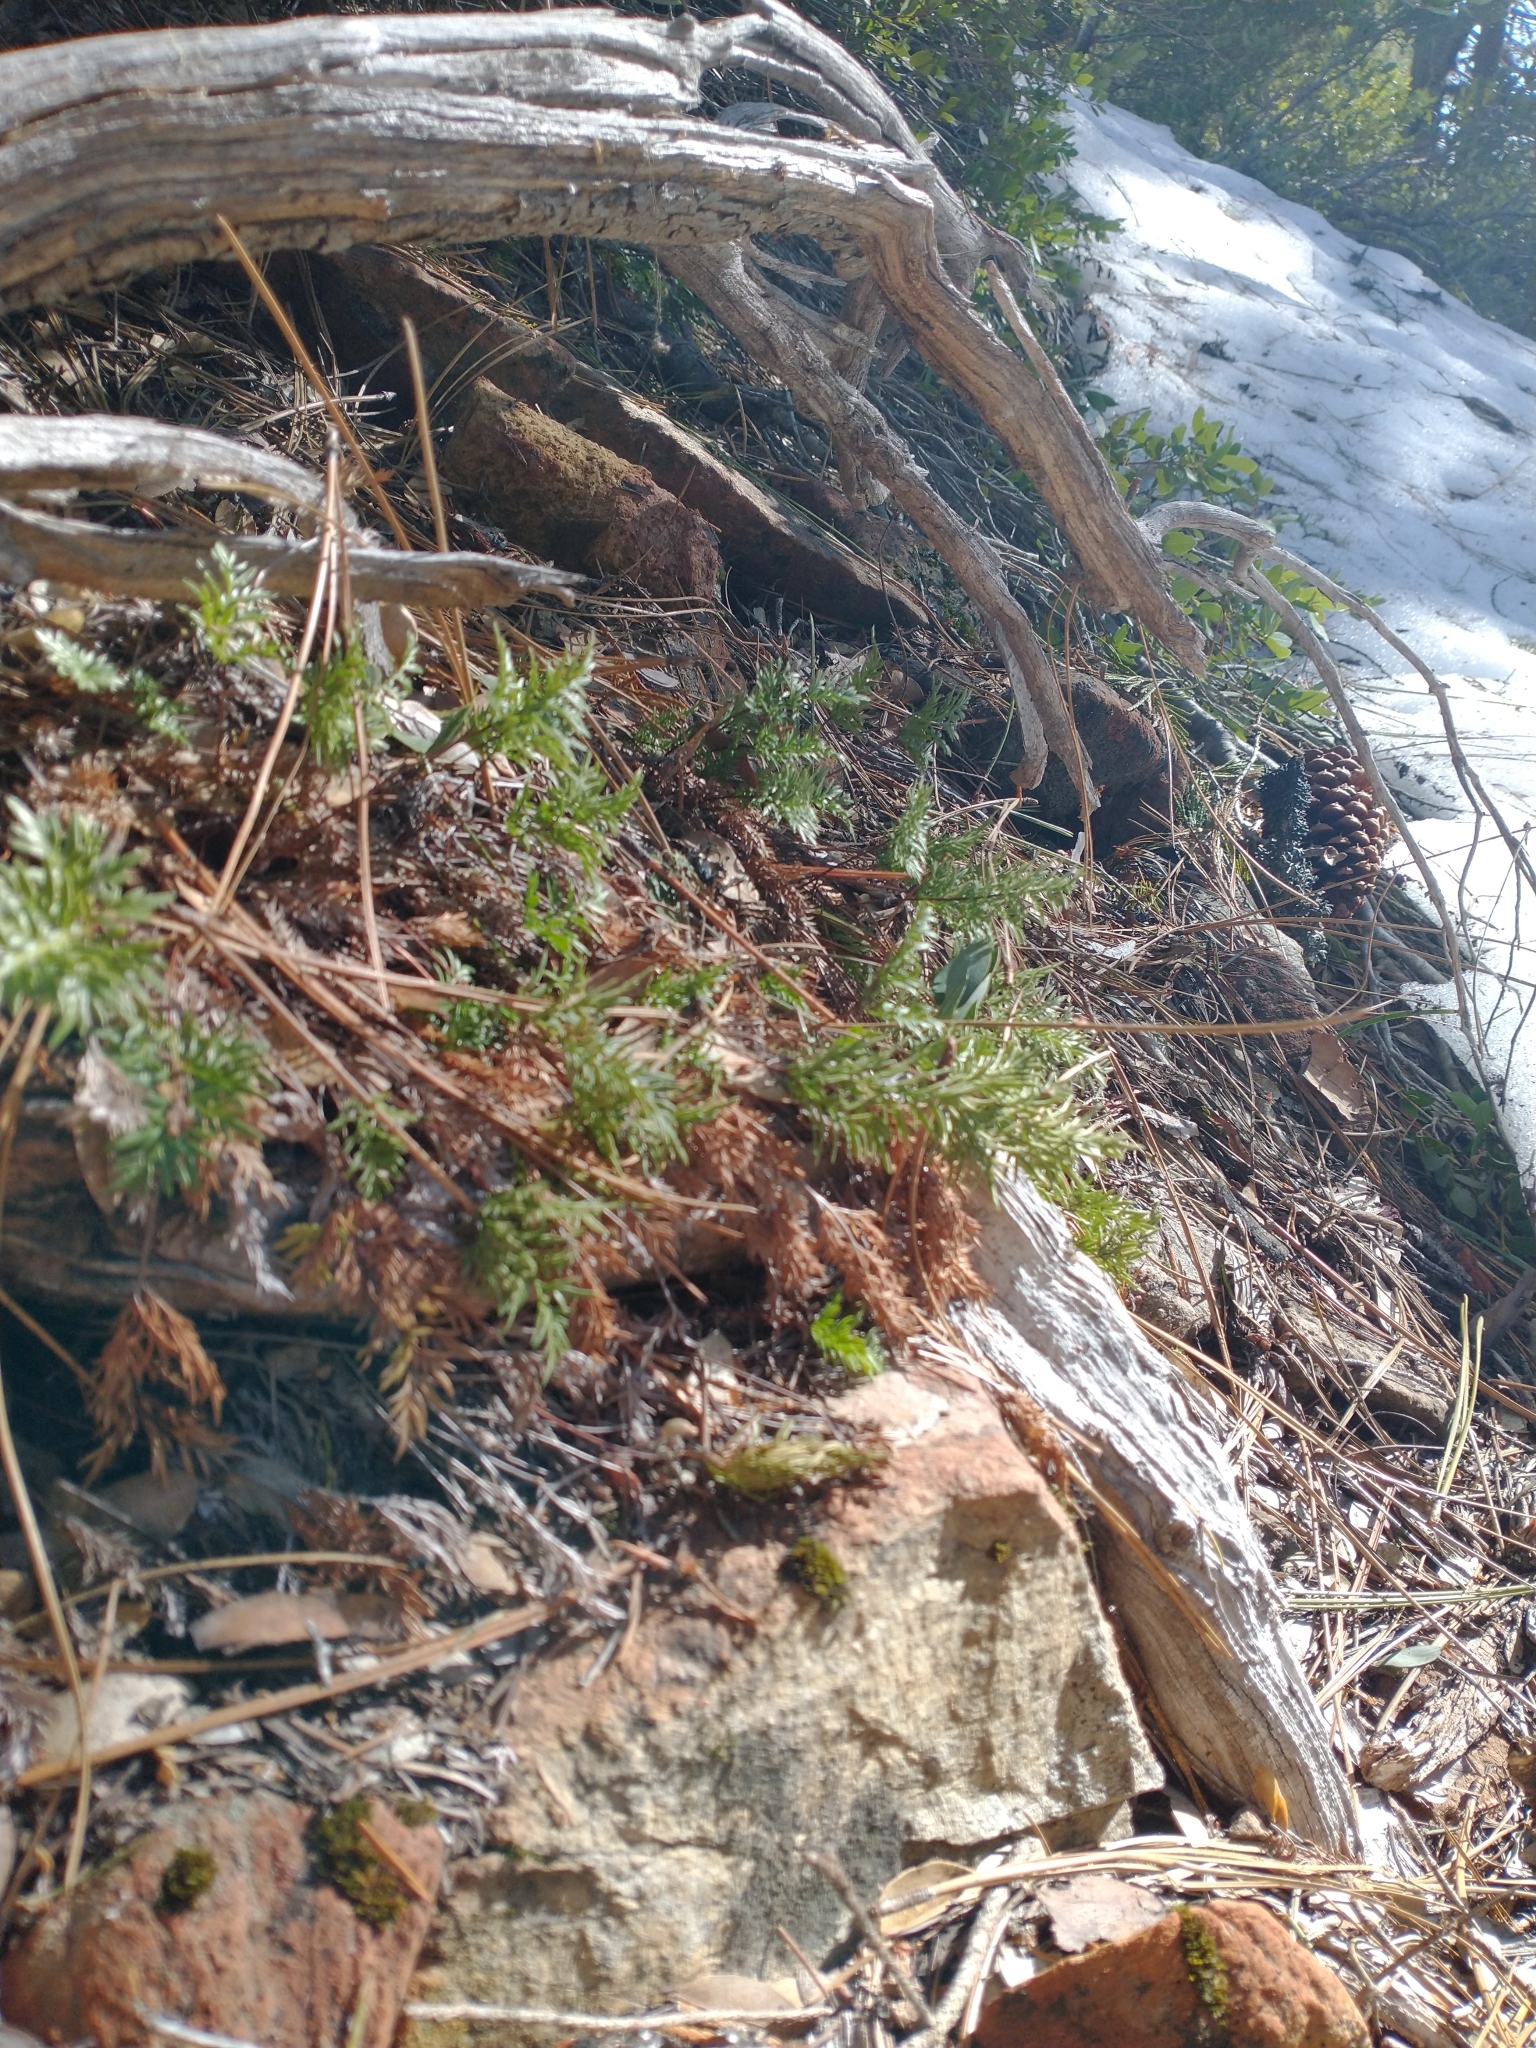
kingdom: Plantae
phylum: Tracheophyta
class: Polypodiopsida
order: Polypodiales
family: Pteridaceae
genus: Aspidotis
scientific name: Aspidotis densa
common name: Indian's dream
